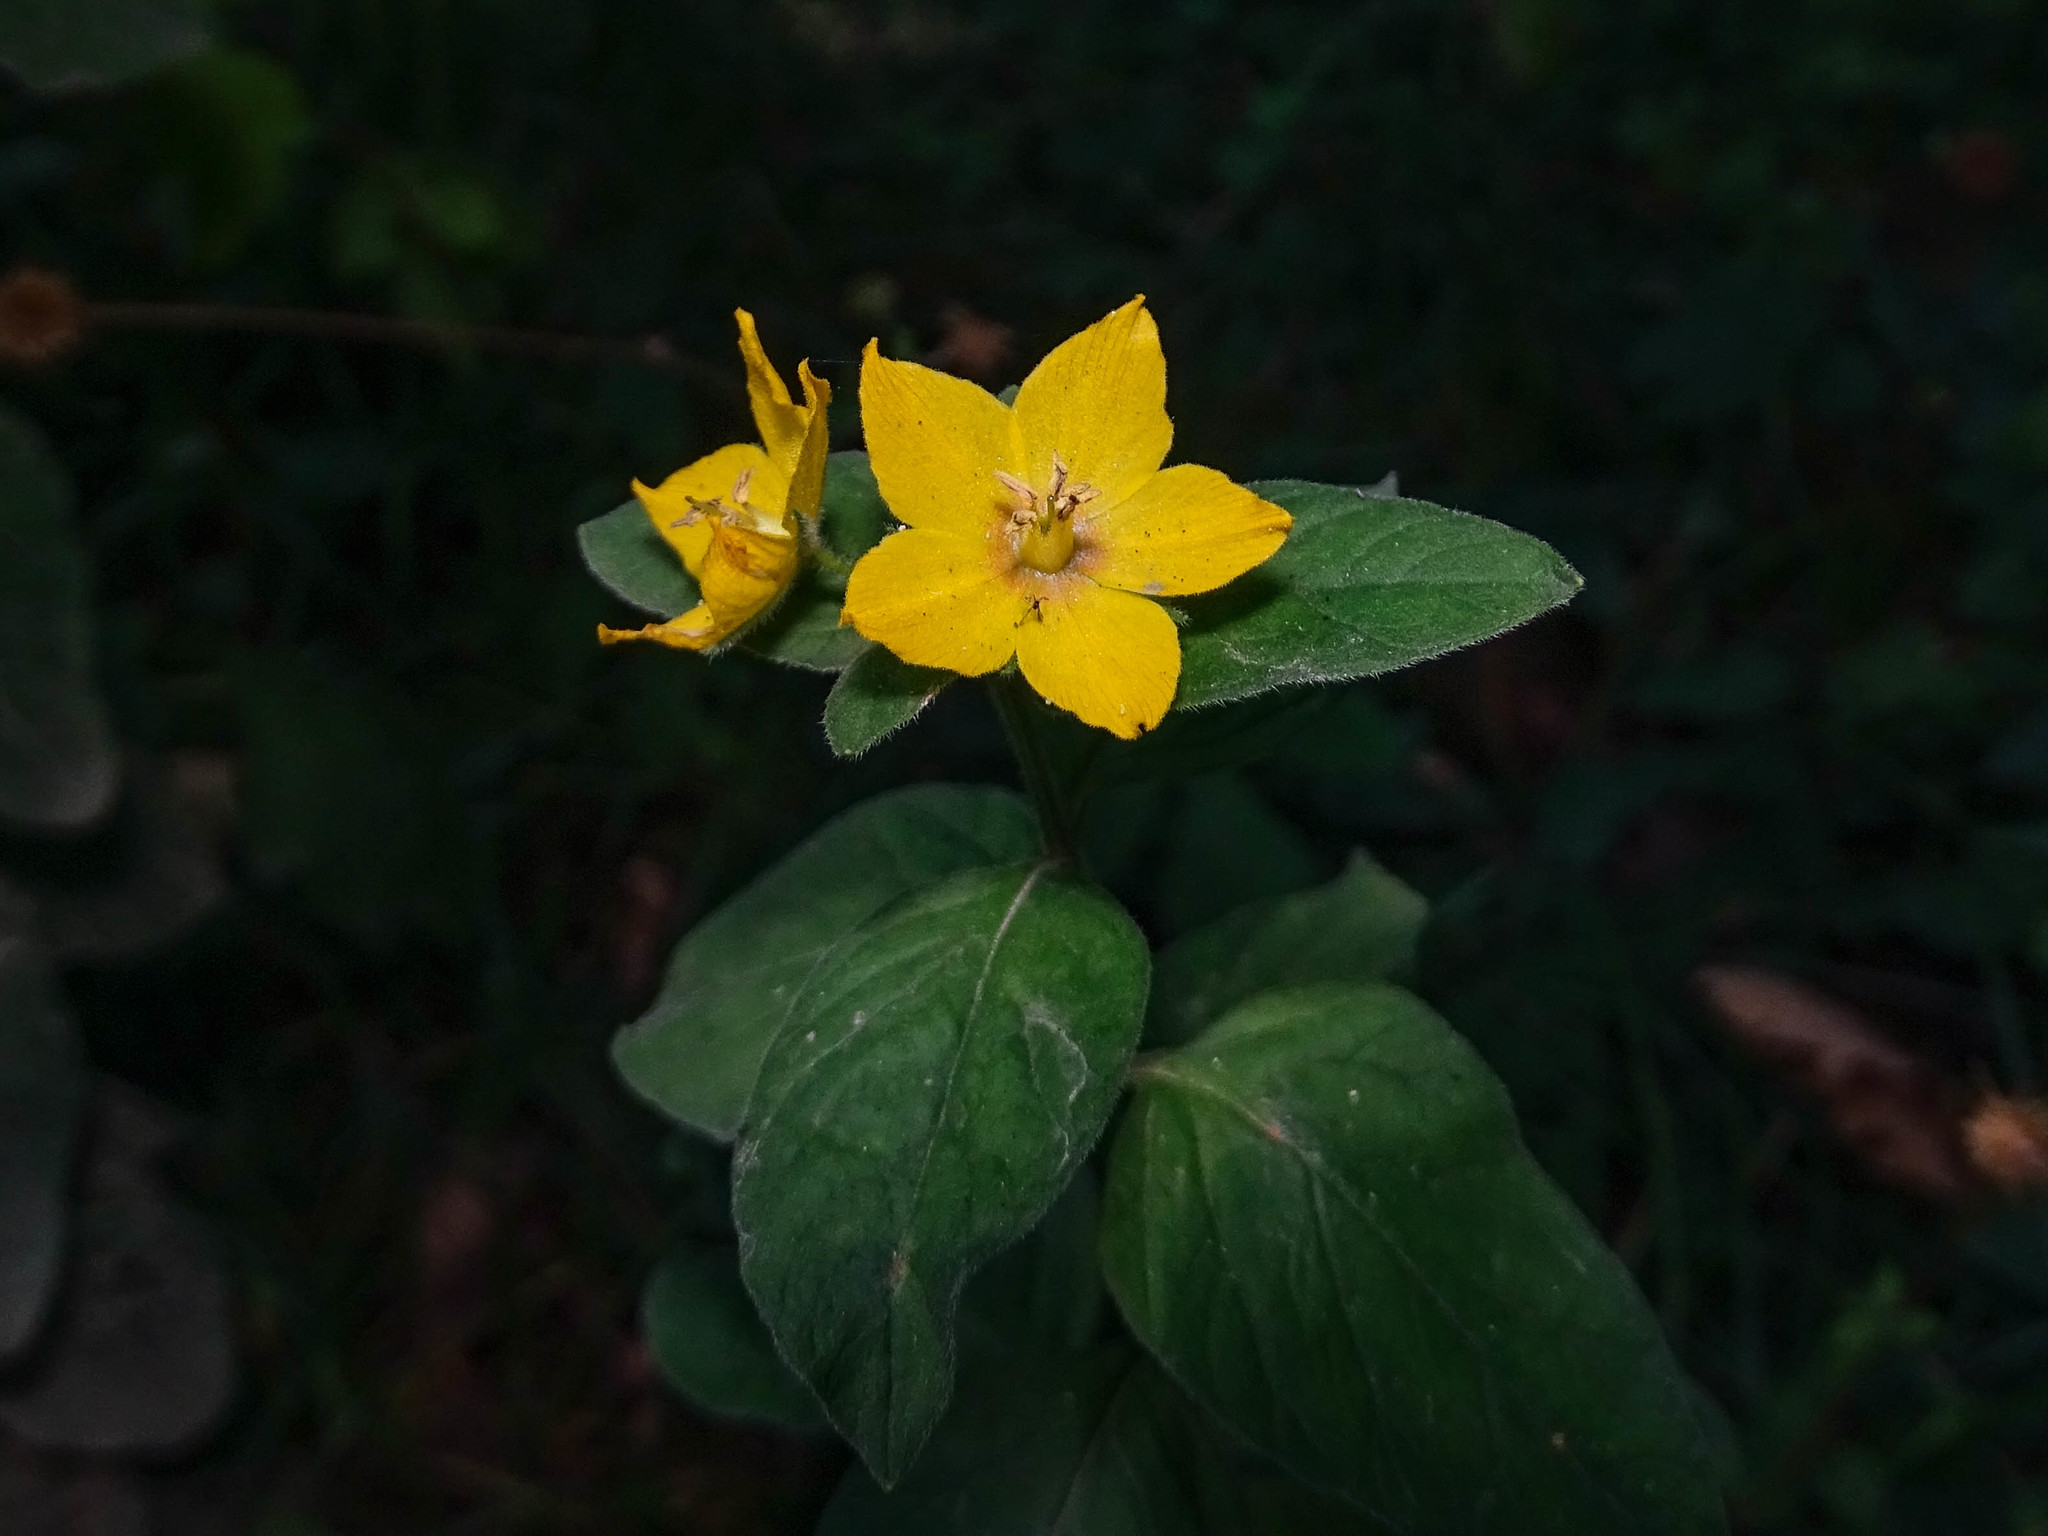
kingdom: Plantae
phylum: Tracheophyta
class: Magnoliopsida
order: Ericales
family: Primulaceae
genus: Lysimachia
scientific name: Lysimachia punctata
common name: Dotted loosestrife
